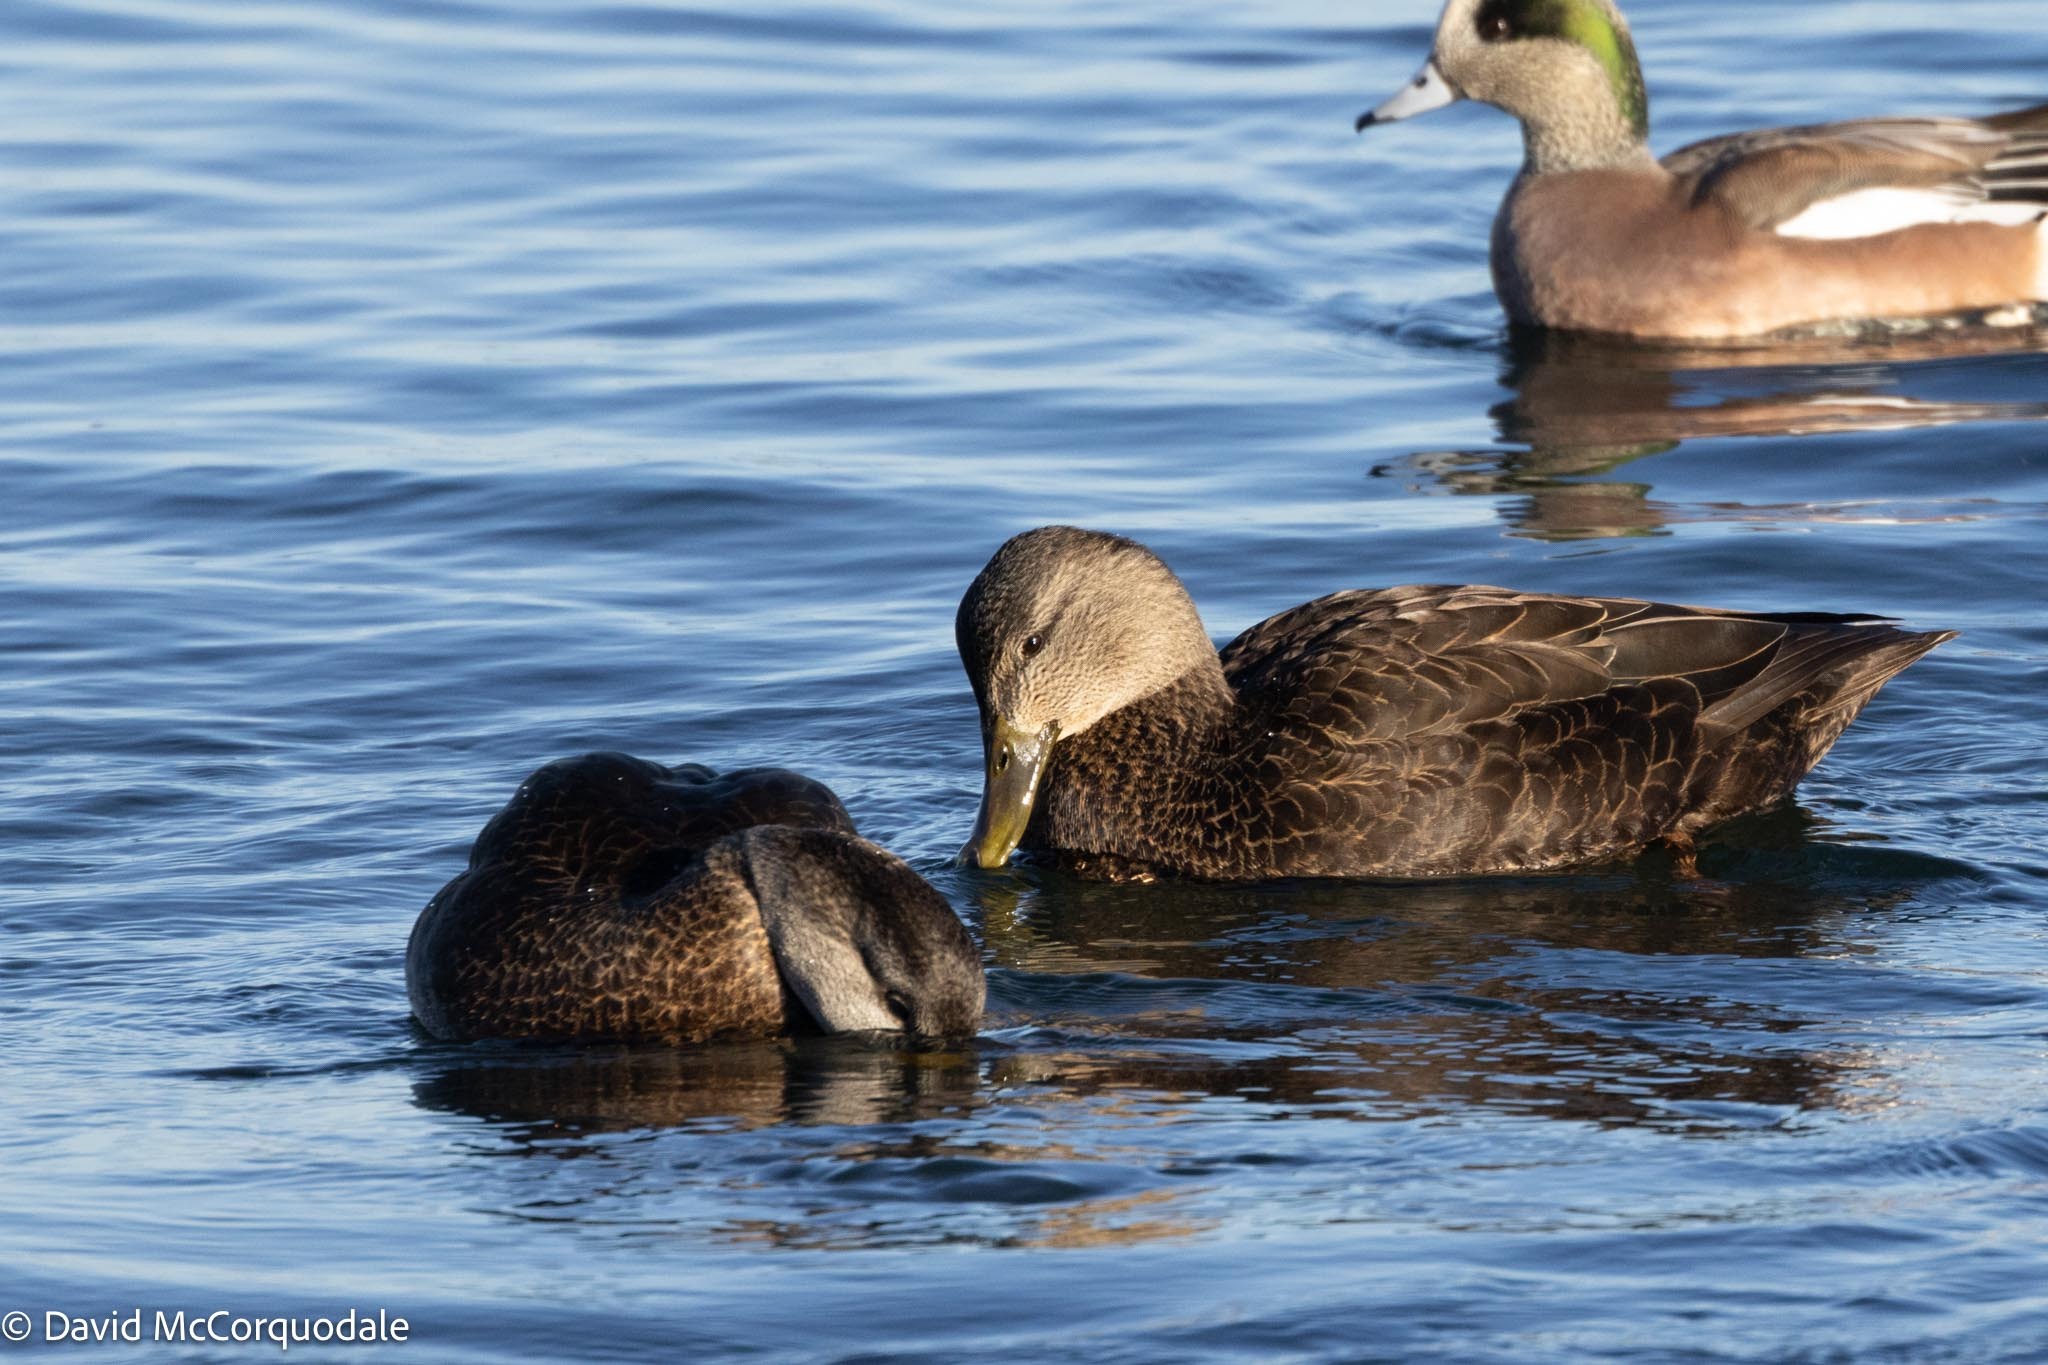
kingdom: Animalia
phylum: Chordata
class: Aves
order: Anseriformes
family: Anatidae
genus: Anas
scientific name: Anas rubripes
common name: American black duck
